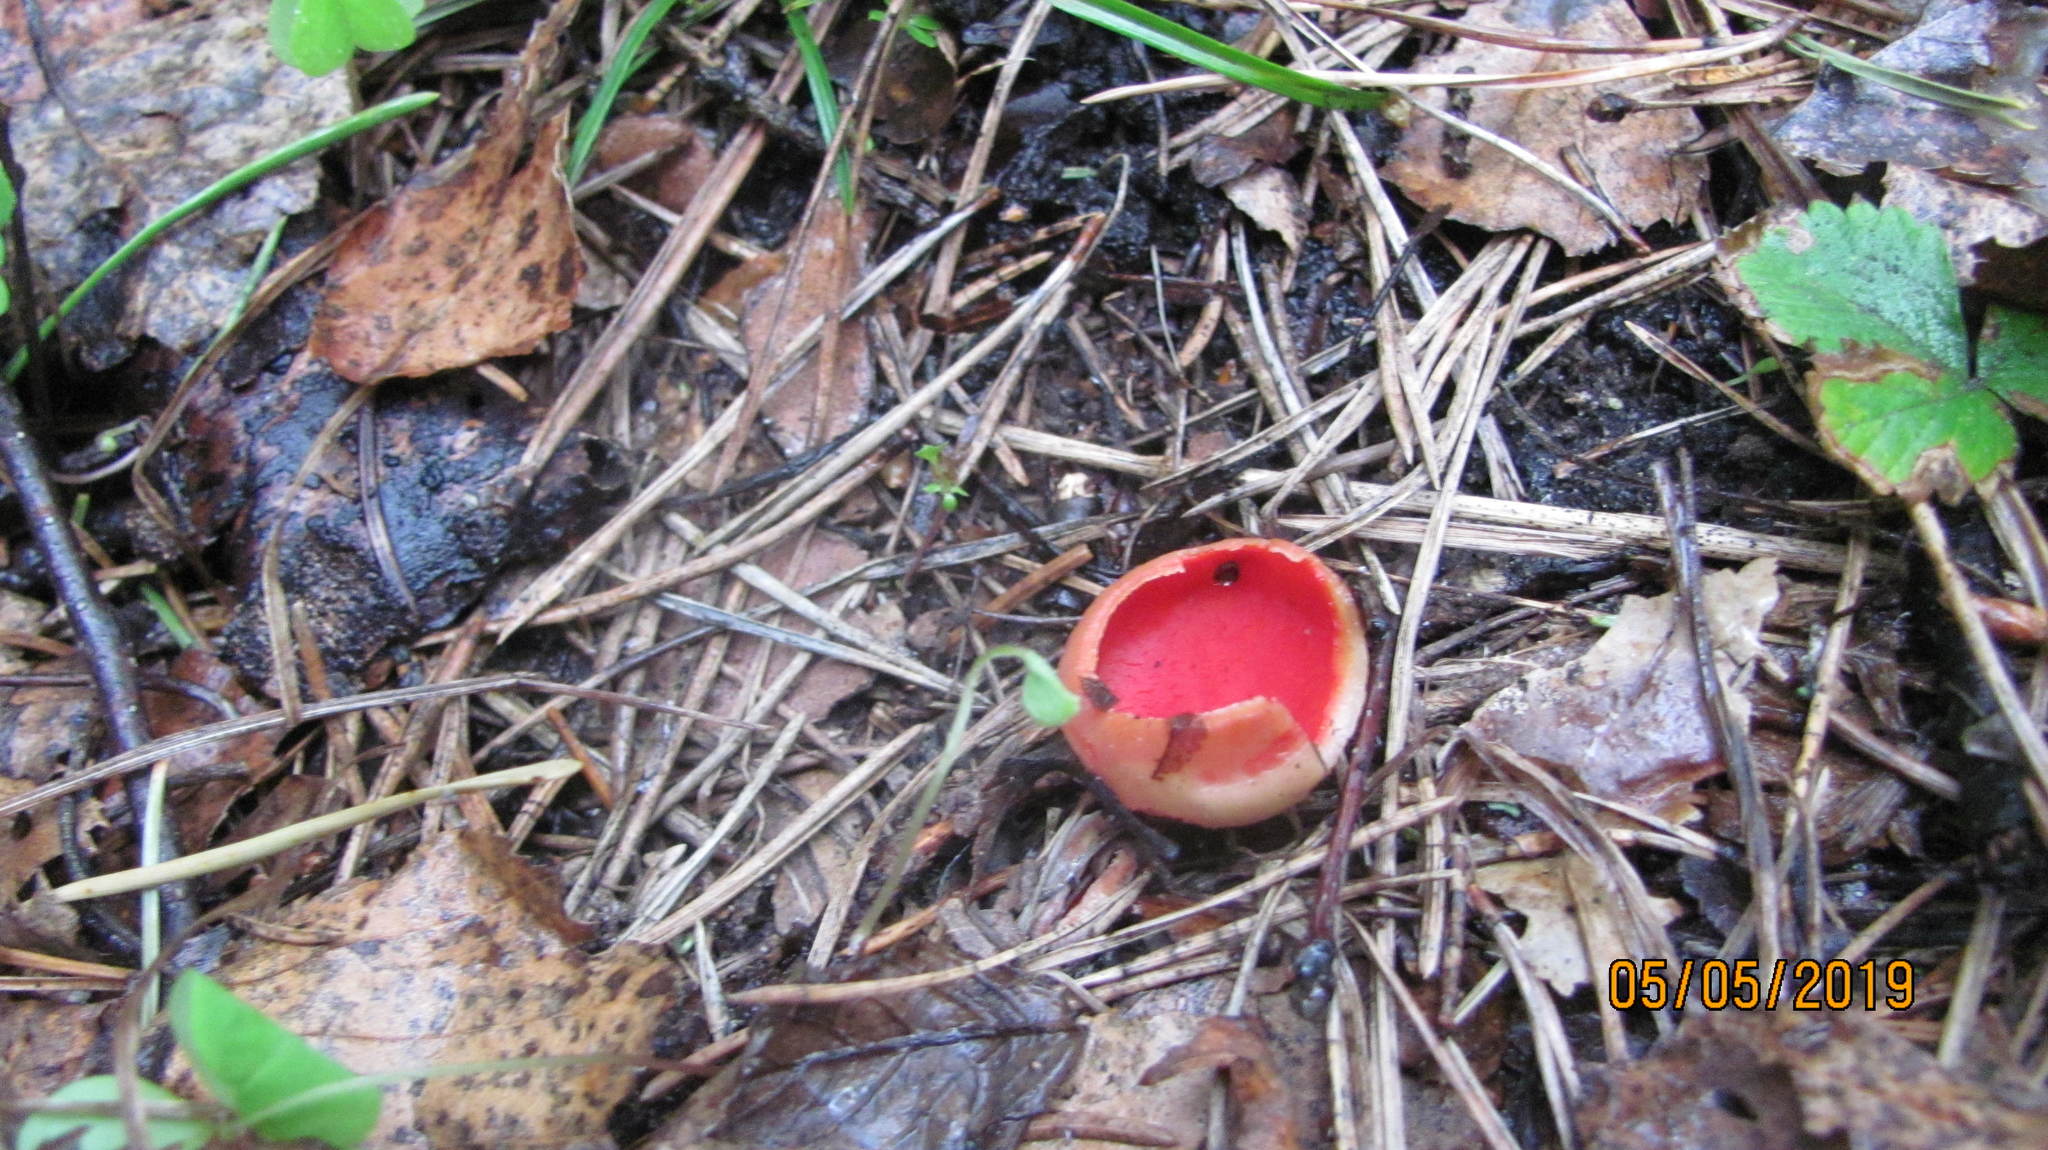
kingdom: Fungi
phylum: Ascomycota
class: Pezizomycetes
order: Pezizales
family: Sarcoscyphaceae
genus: Sarcoscypha
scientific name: Sarcoscypha austriaca
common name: Scarlet elfcup
